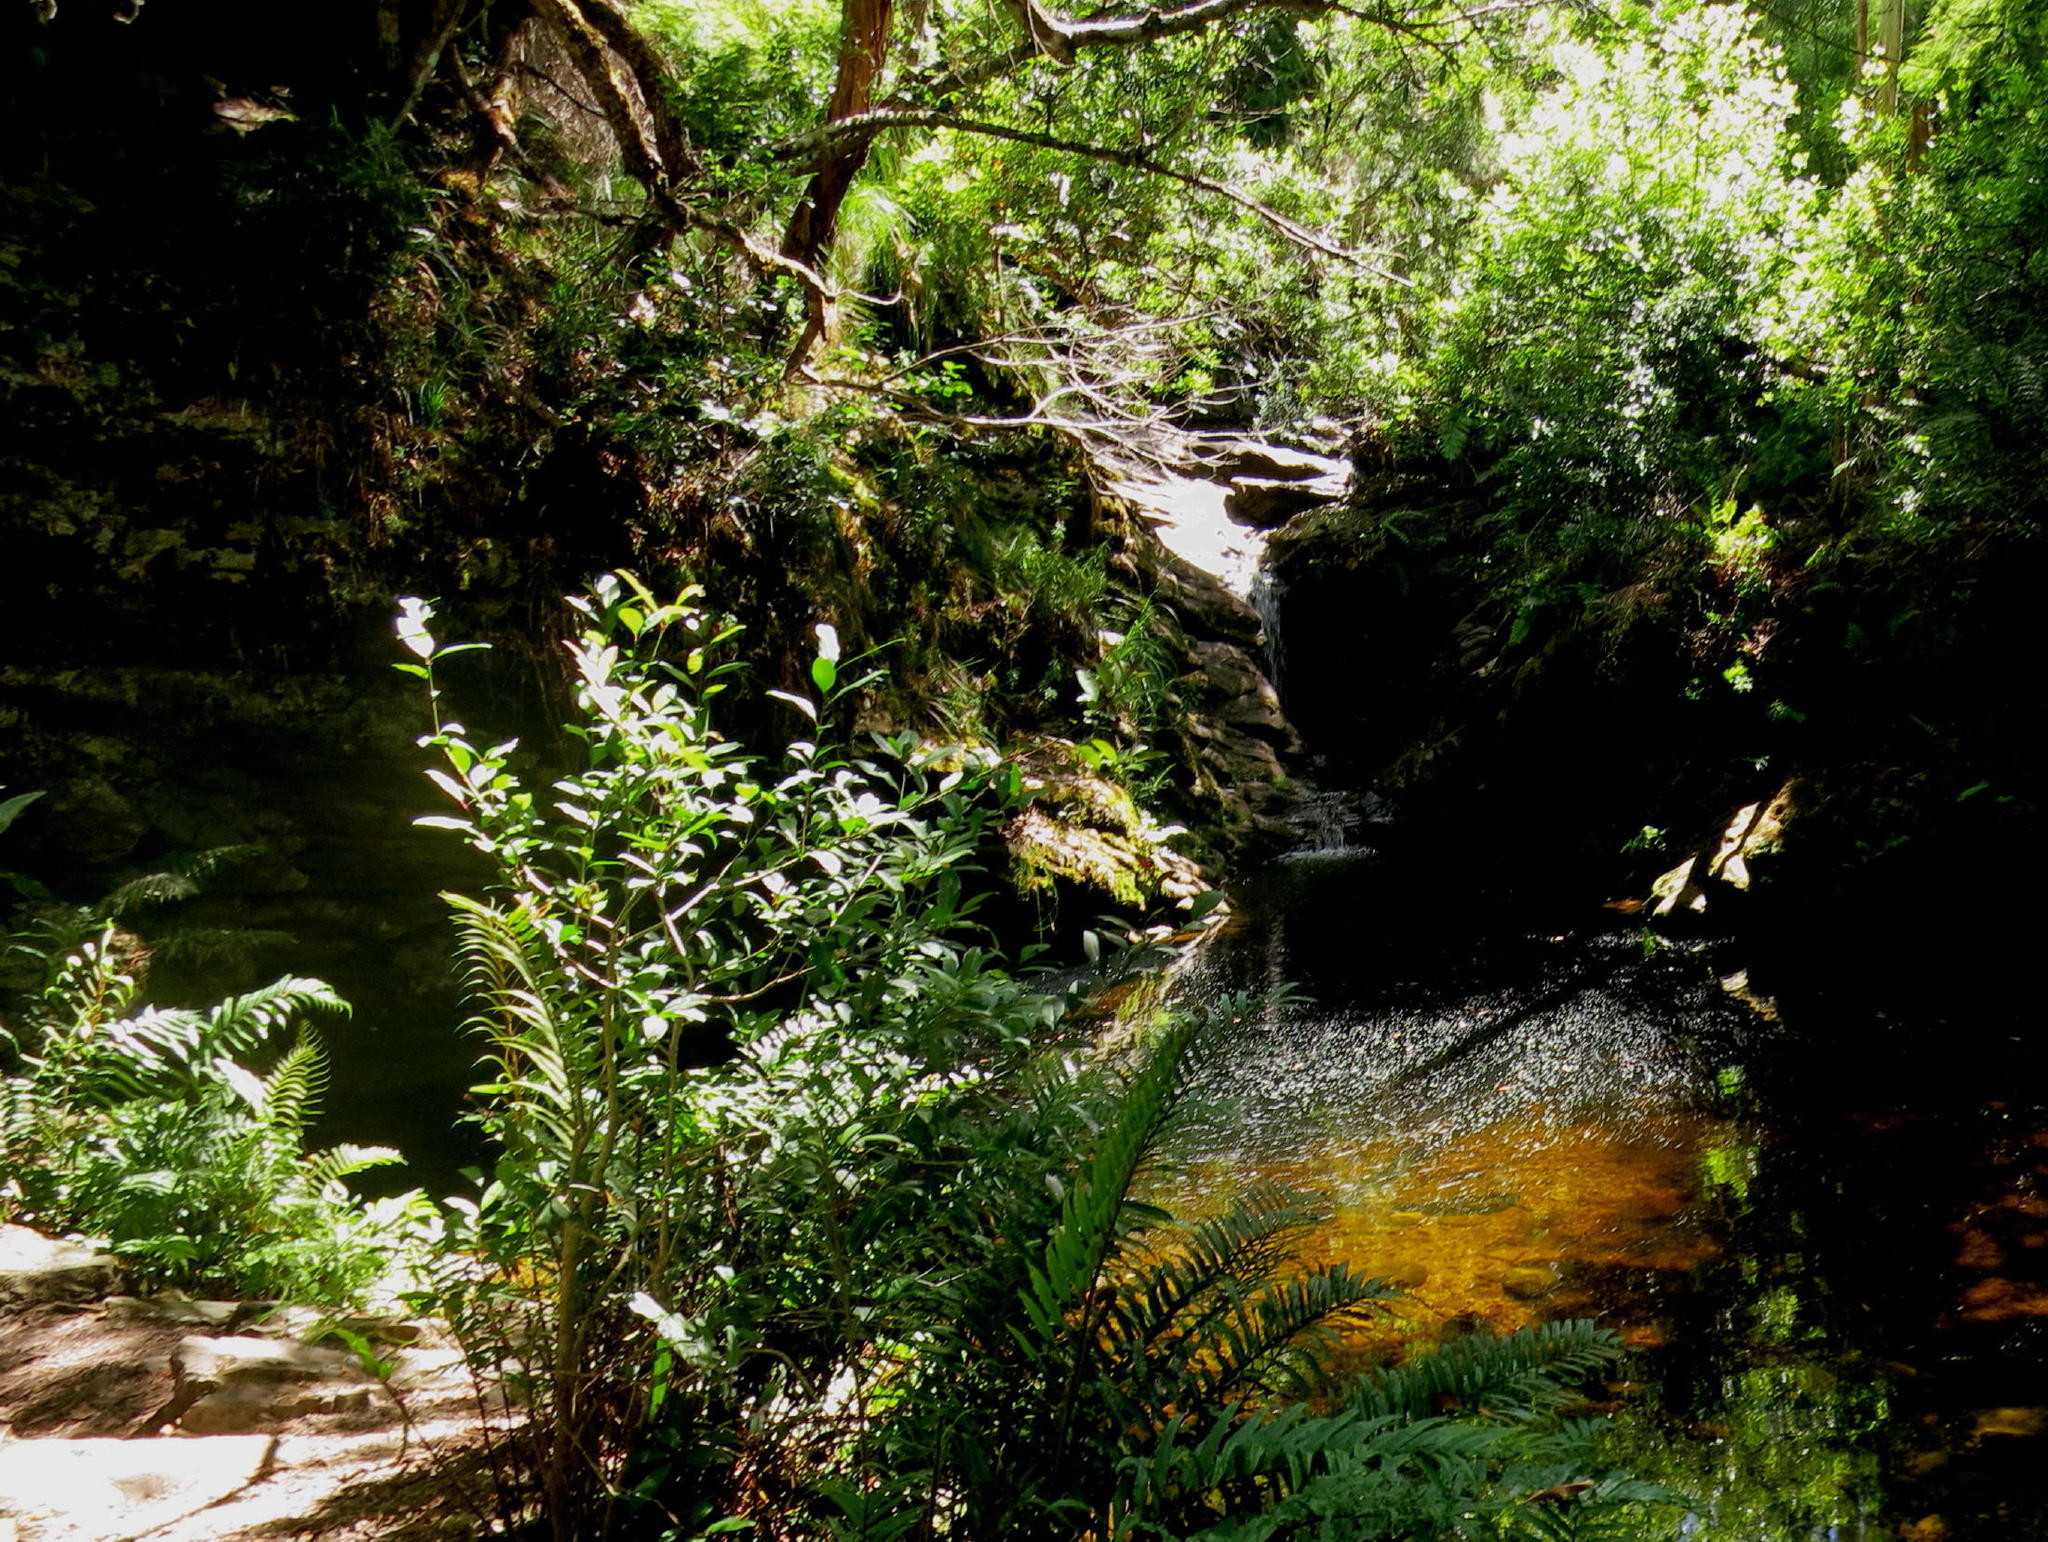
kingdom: Plantae
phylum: Tracheophyta
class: Polypodiopsida
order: Polypodiales
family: Blechnaceae
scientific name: Blechnaceae
